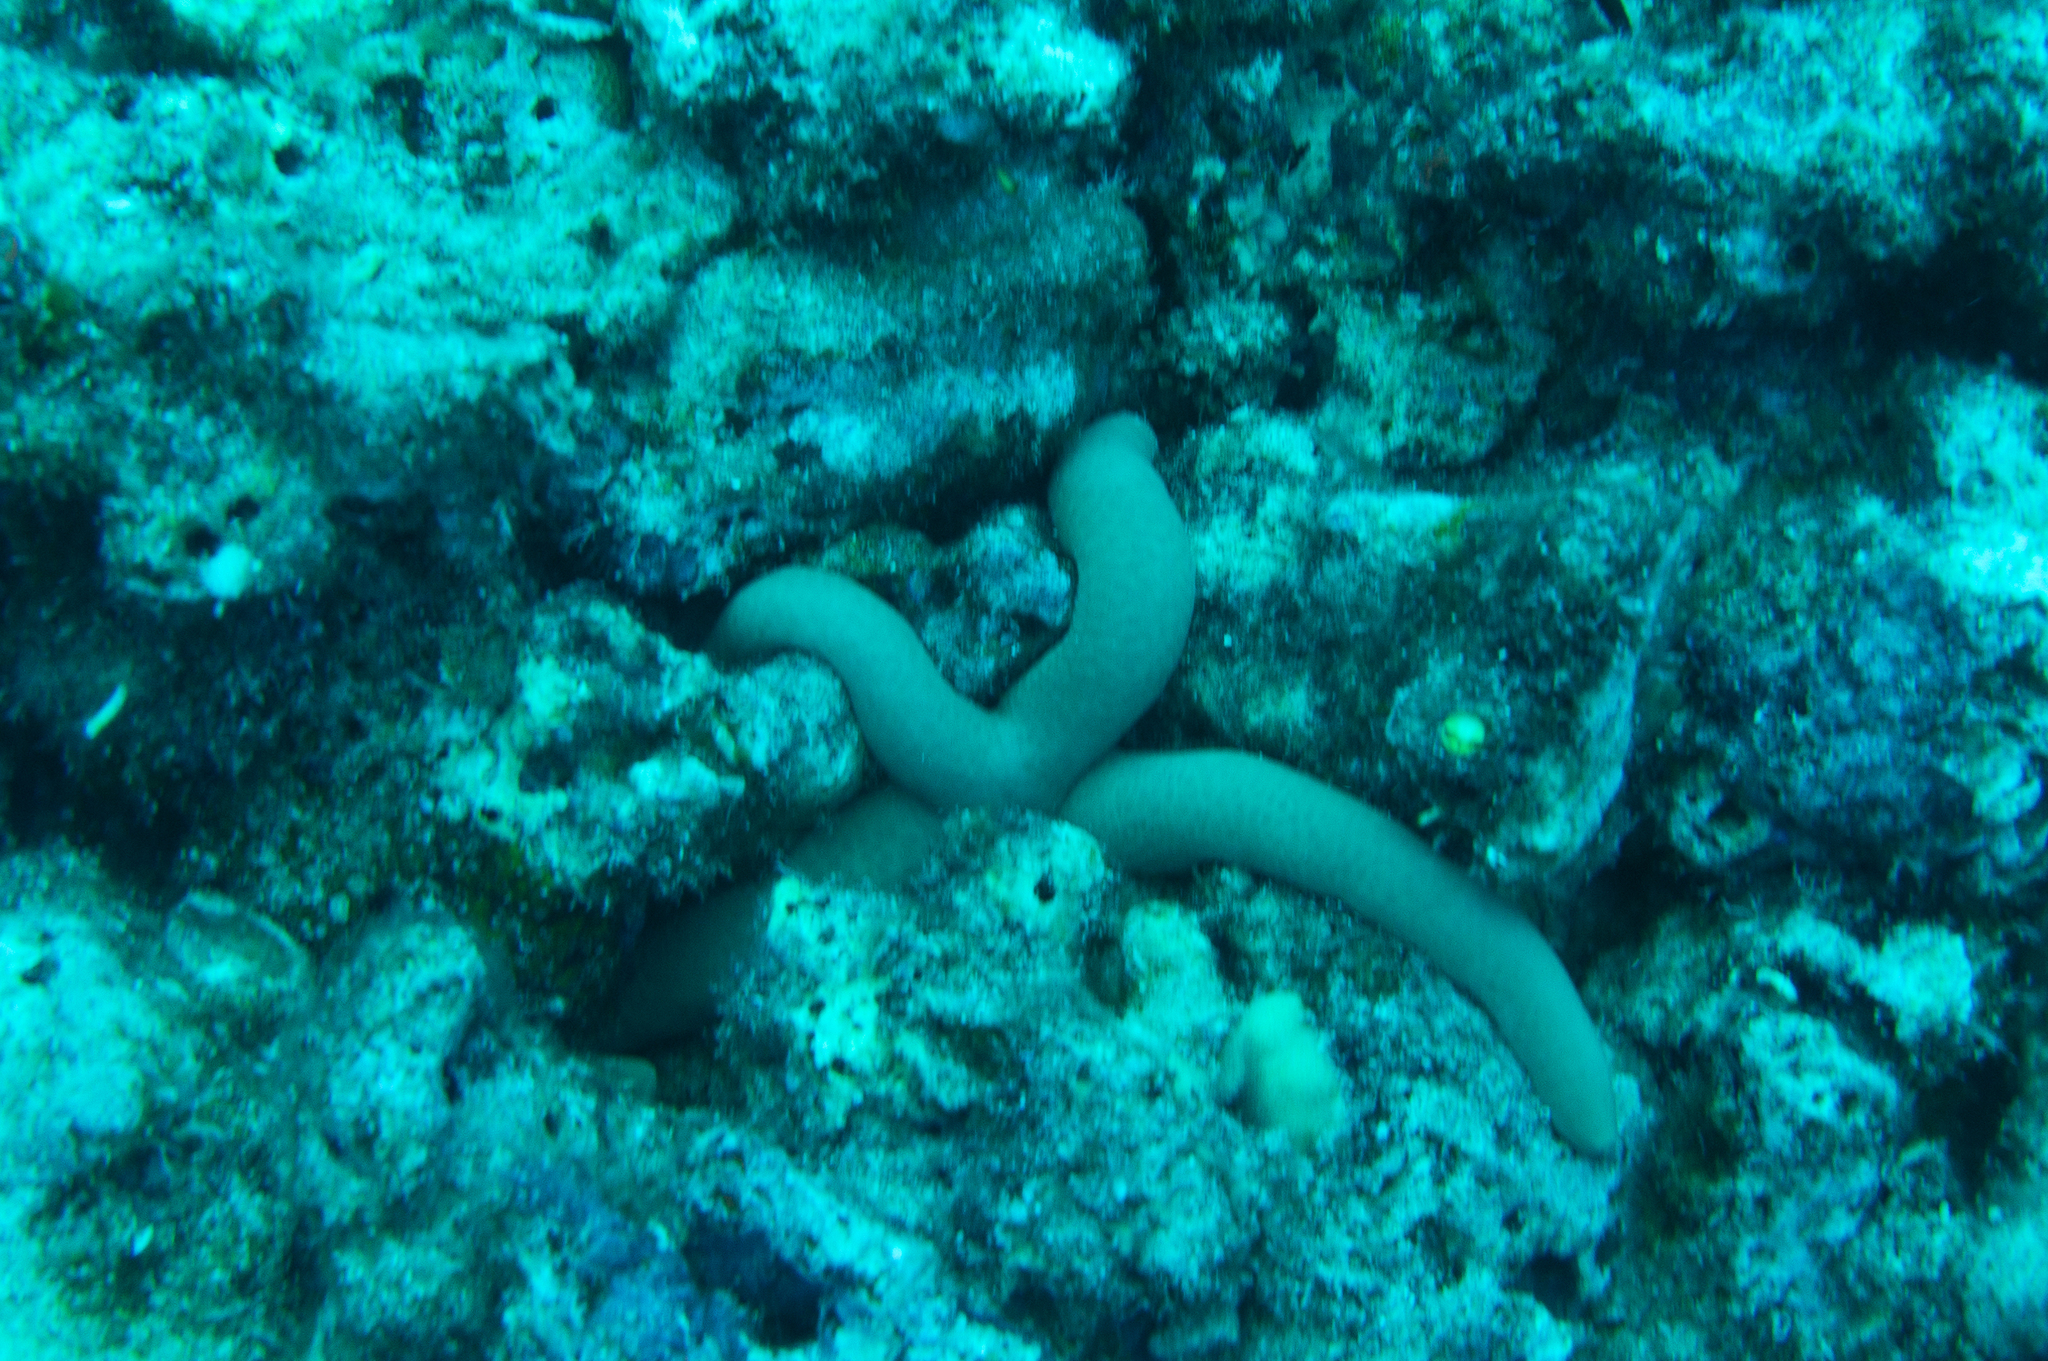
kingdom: Animalia
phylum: Echinodermata
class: Asteroidea
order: Valvatida
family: Ophidiasteridae
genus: Linckia
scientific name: Linckia guildingi
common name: Common comet star
